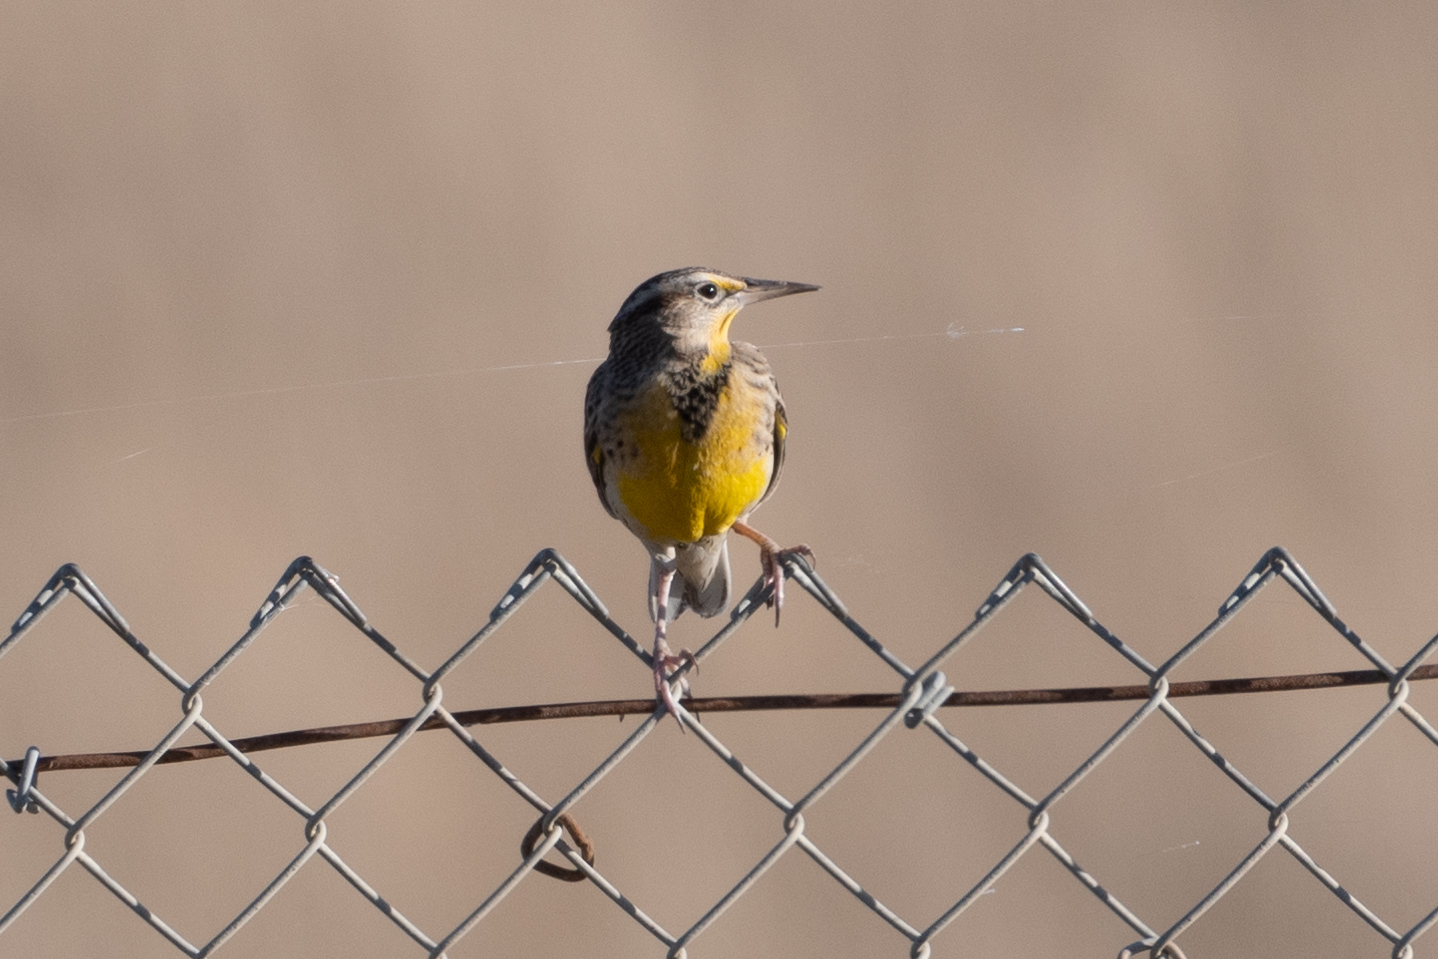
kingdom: Animalia
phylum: Chordata
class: Aves
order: Passeriformes
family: Icteridae
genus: Sturnella
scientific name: Sturnella neglecta
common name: Western meadowlark
